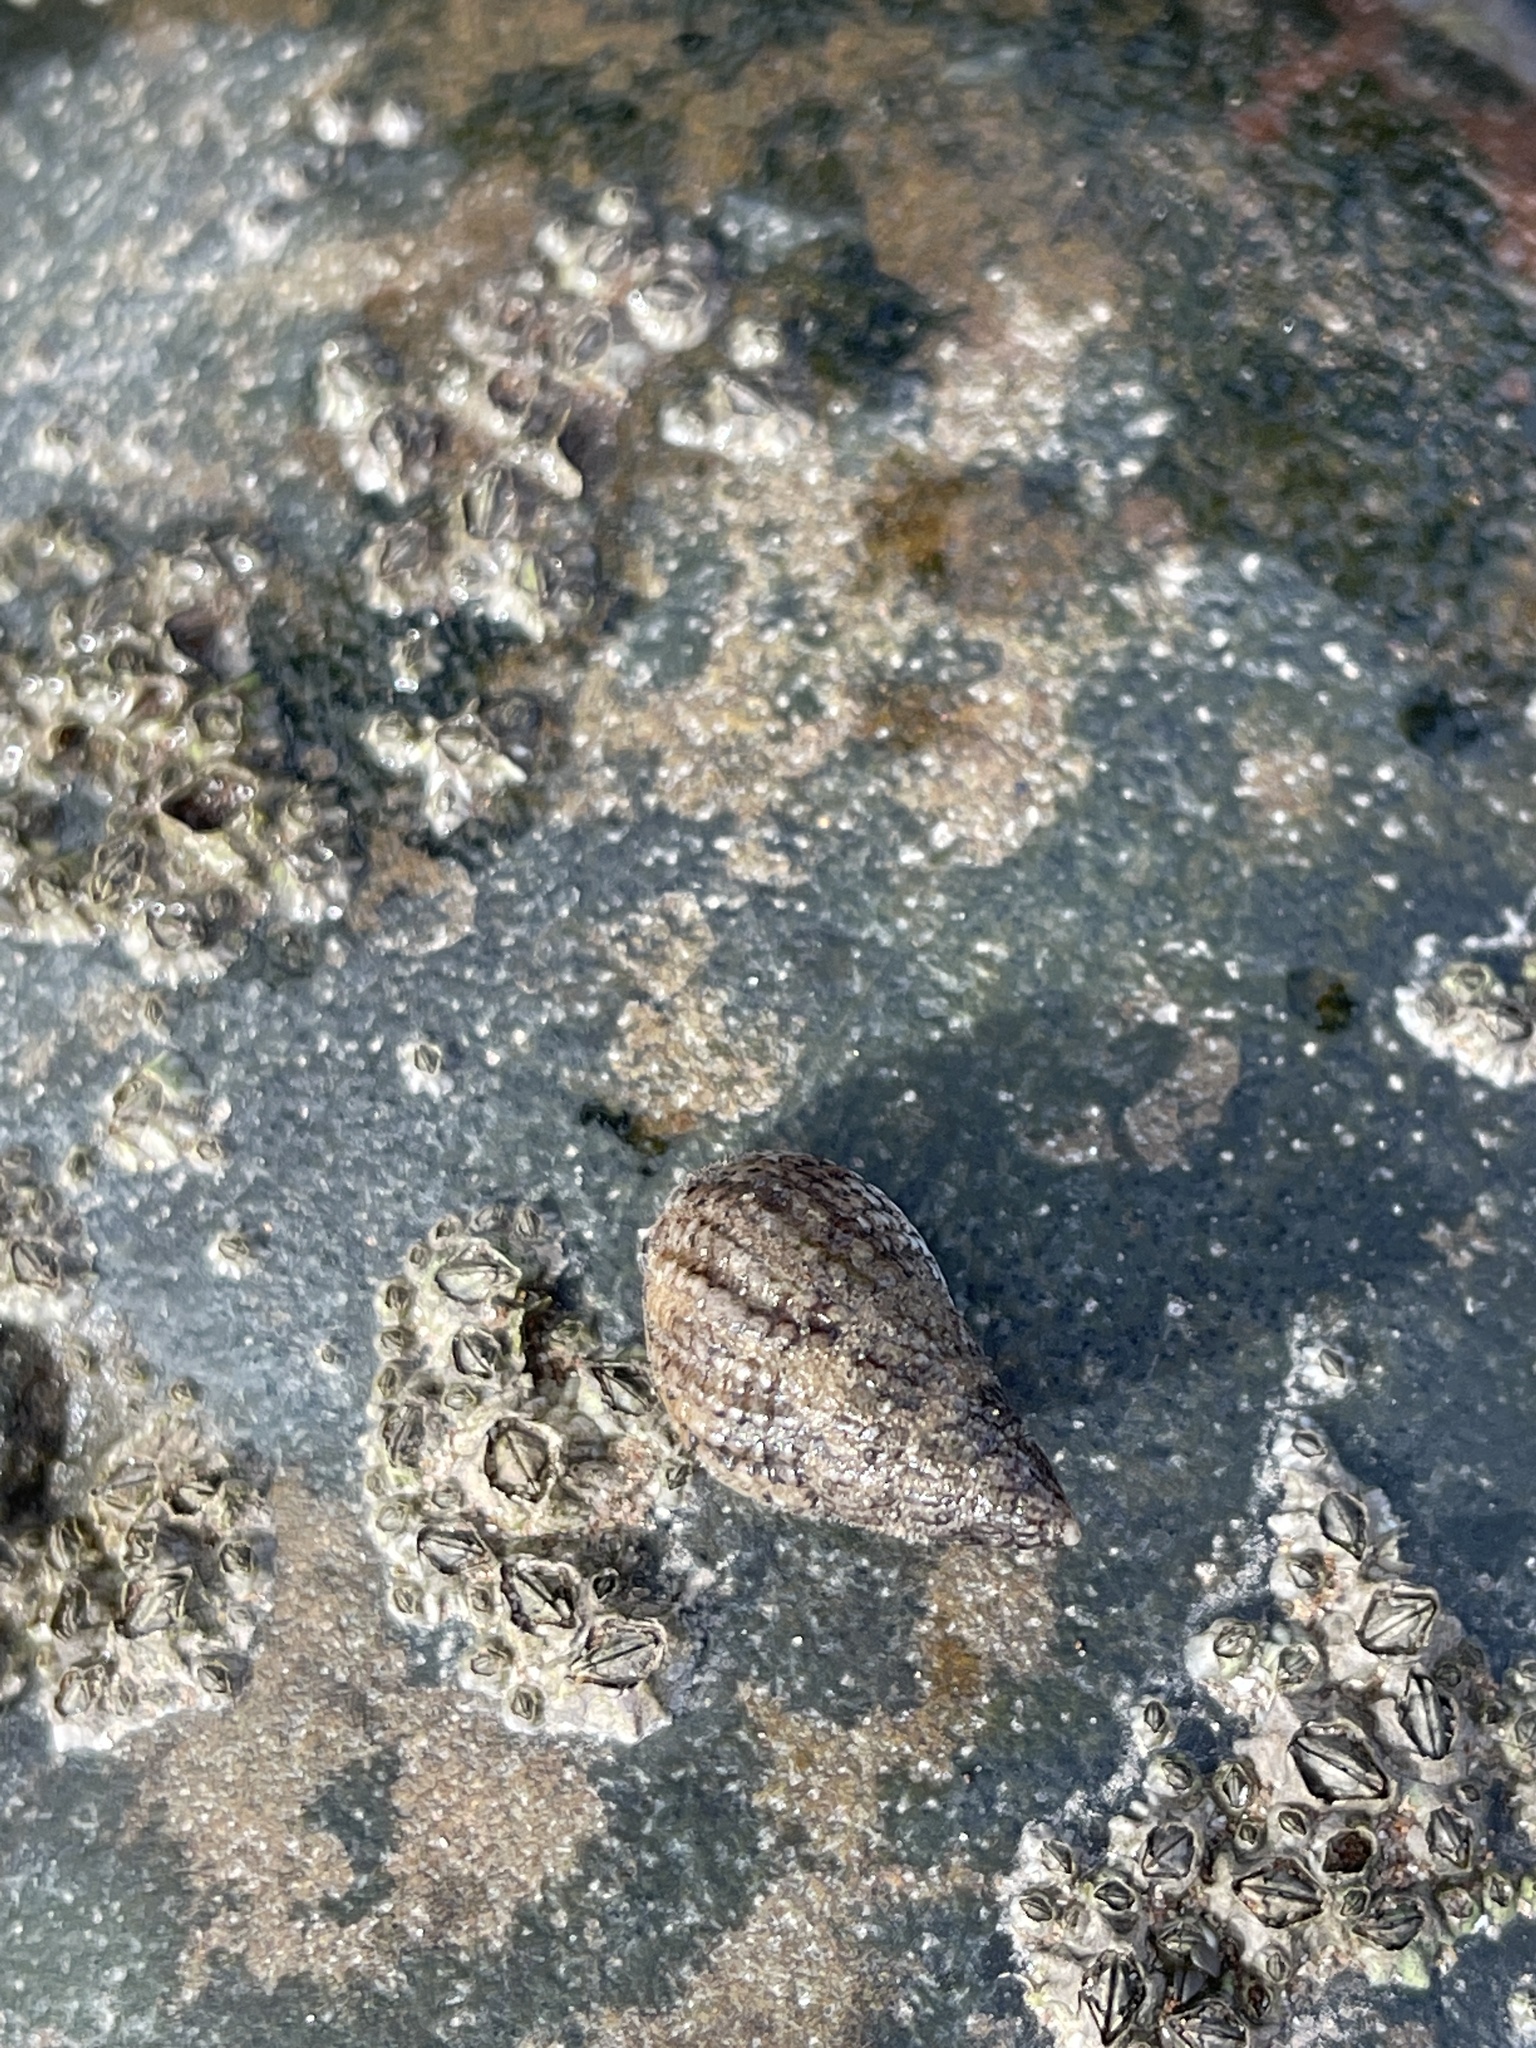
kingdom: Animalia
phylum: Mollusca
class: Gastropoda
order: Neogastropoda
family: Nassariidae
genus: Tritia
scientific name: Tritia reticulata
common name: Netted dog whelk
